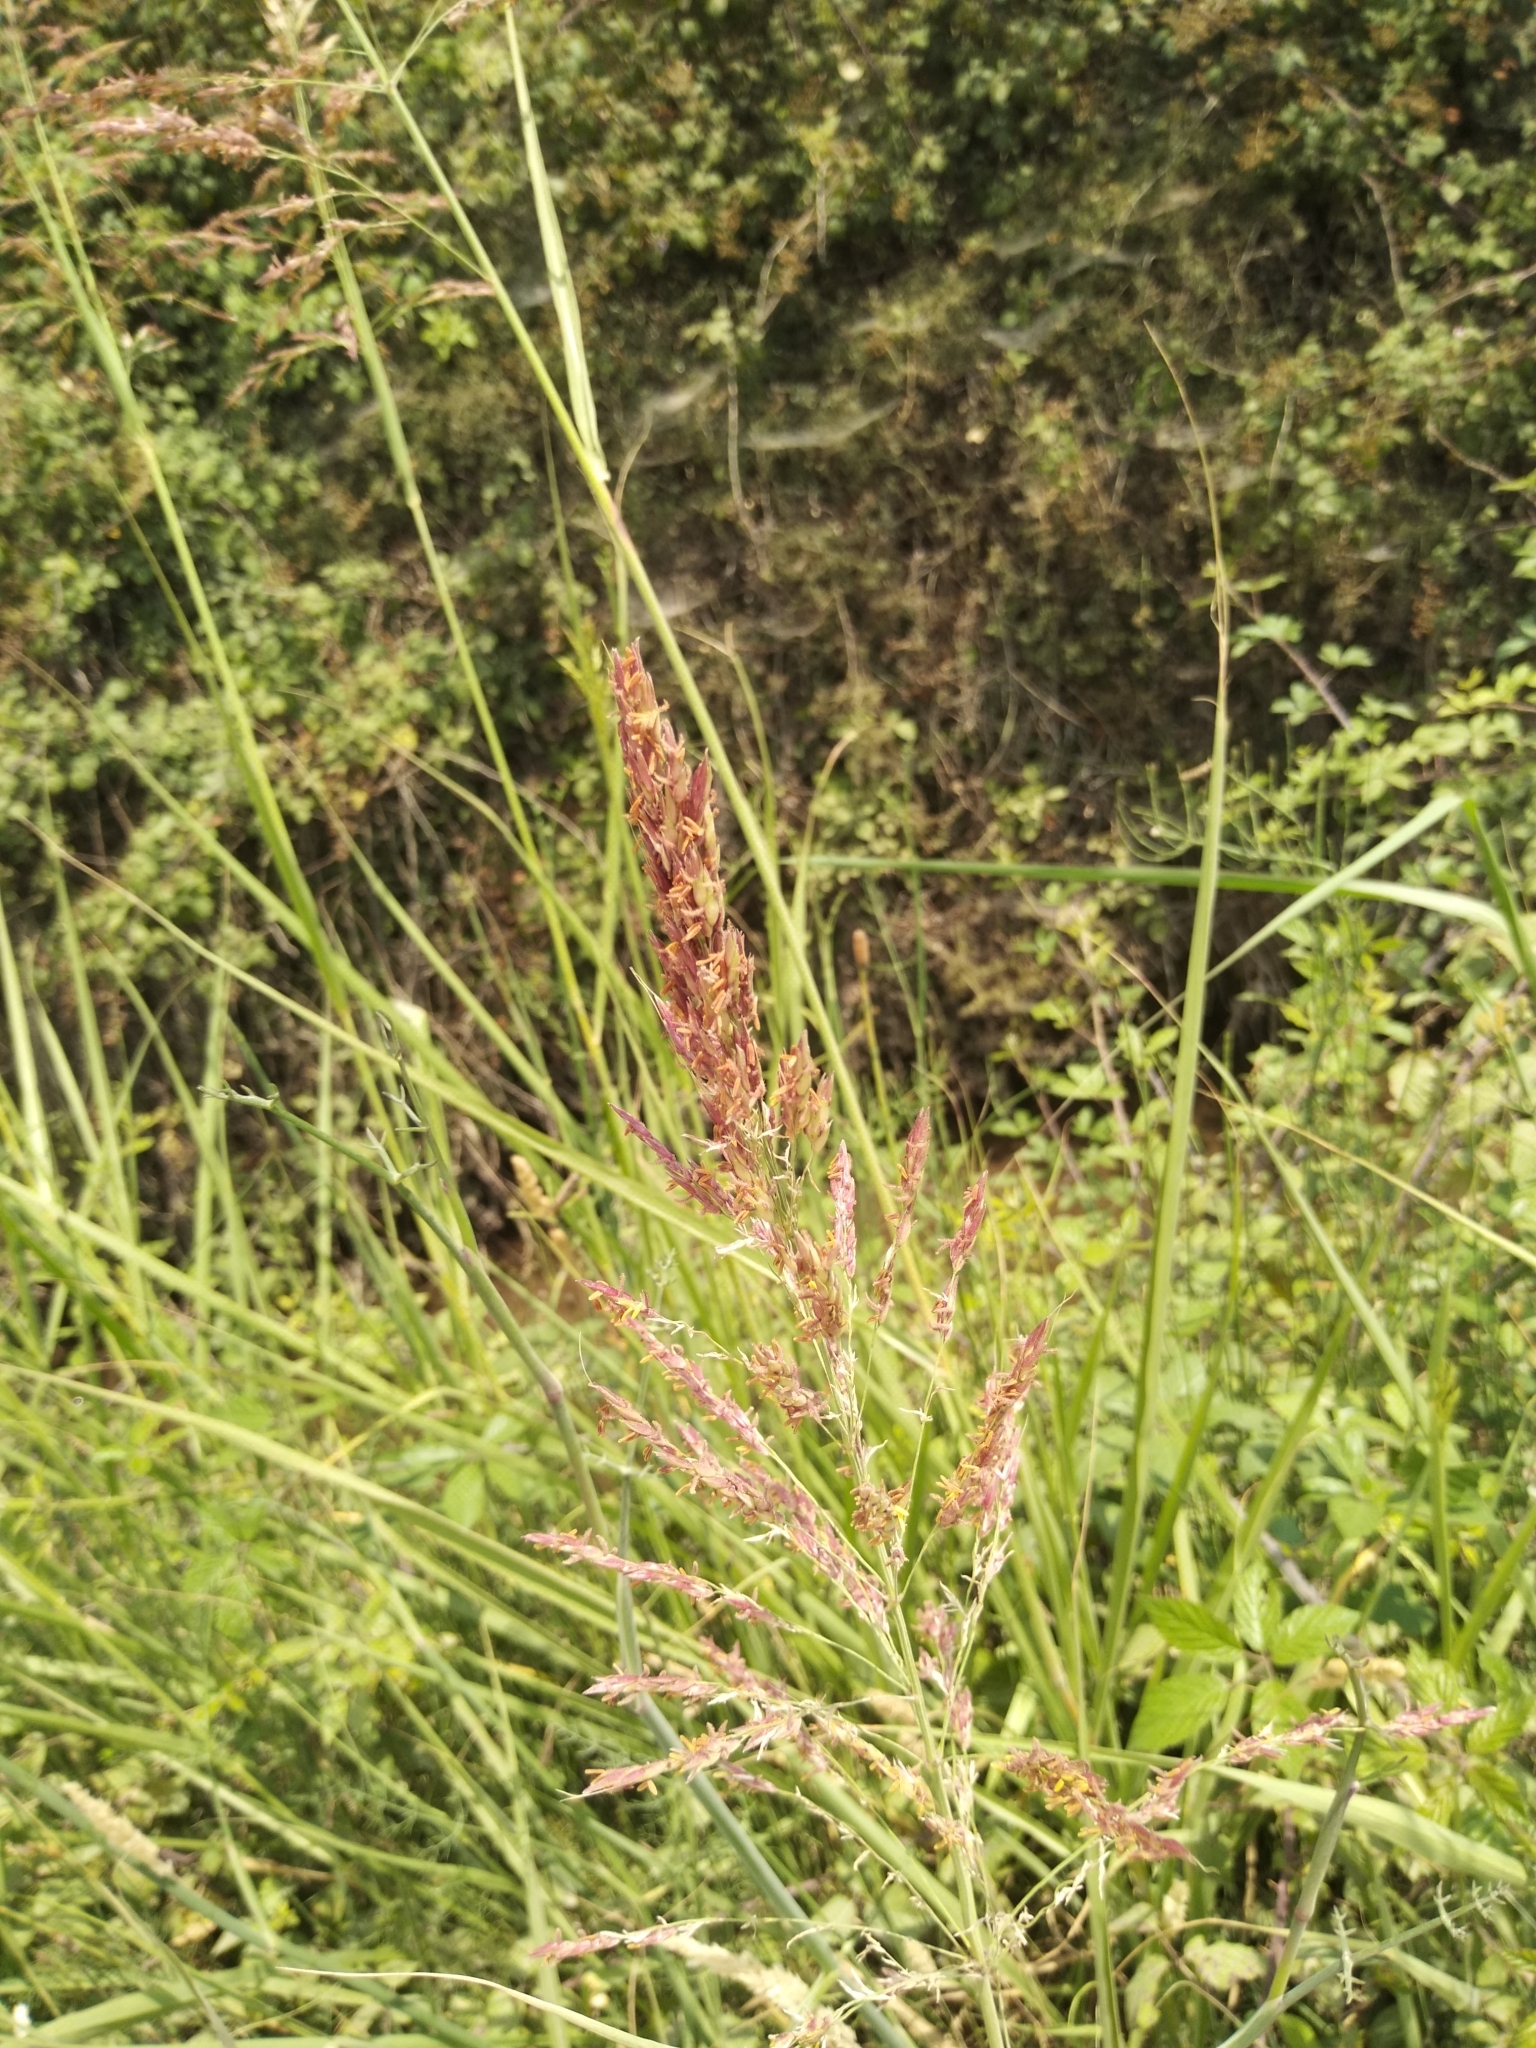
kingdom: Plantae
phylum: Tracheophyta
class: Liliopsida
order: Poales
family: Poaceae
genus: Sorghum
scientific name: Sorghum halepense
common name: Johnson-grass
